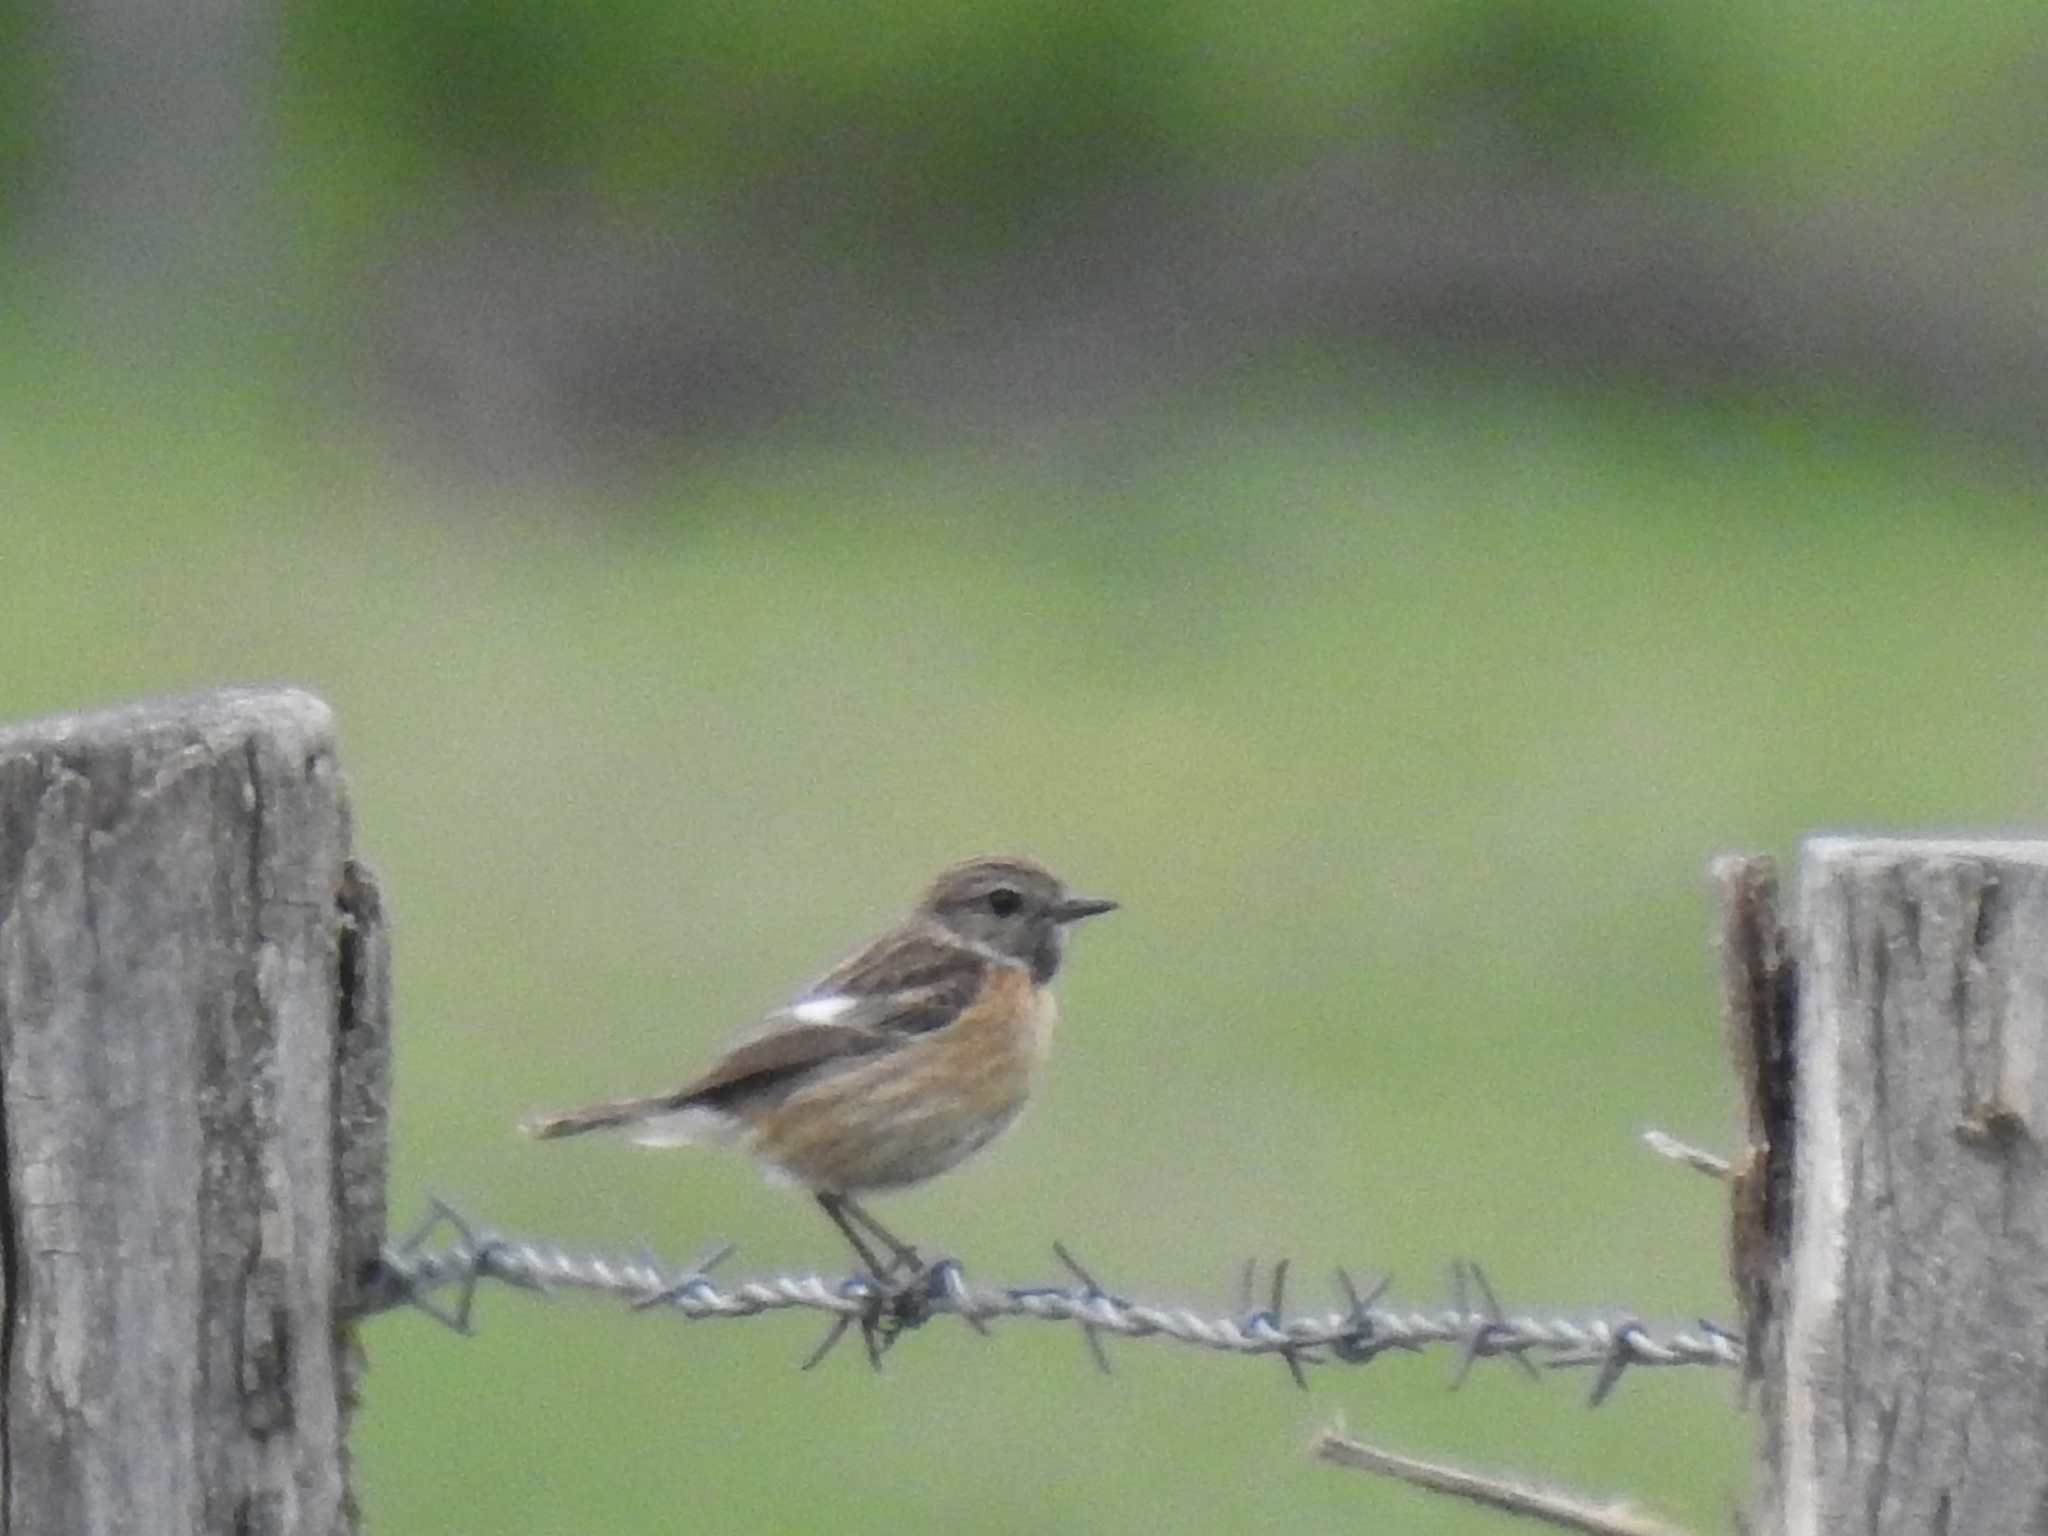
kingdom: Animalia
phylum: Chordata
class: Aves
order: Passeriformes
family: Muscicapidae
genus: Saxicola
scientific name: Saxicola rubicola
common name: European stonechat
